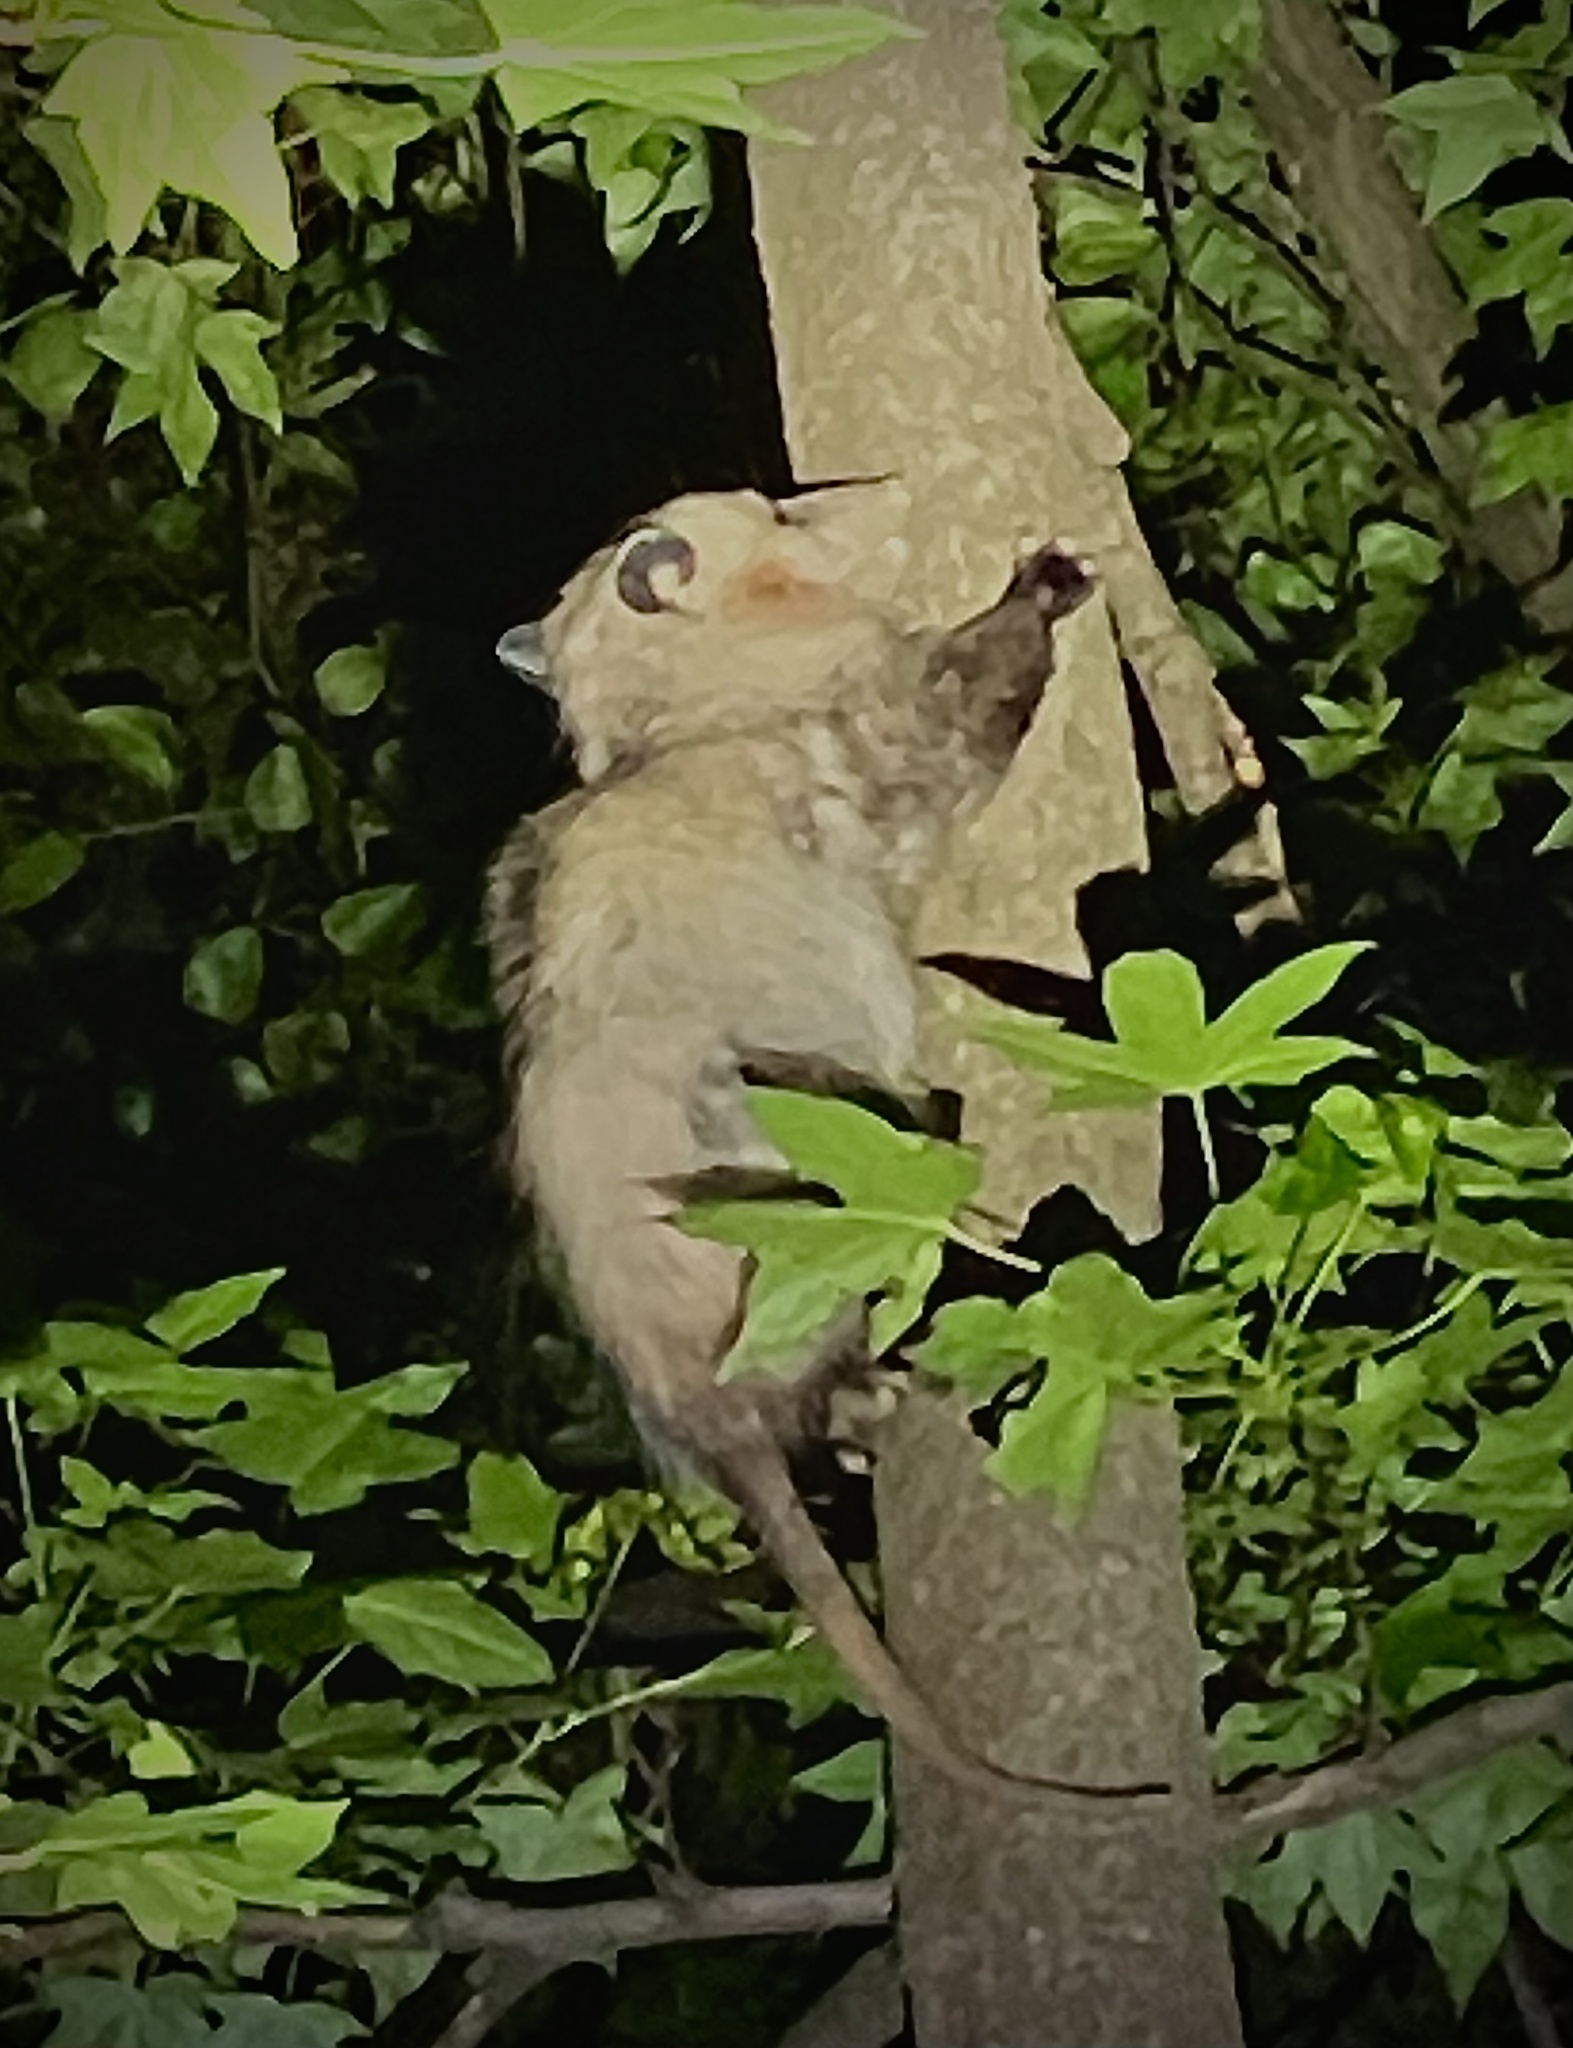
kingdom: Animalia
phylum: Chordata
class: Mammalia
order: Didelphimorphia
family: Didelphidae
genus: Didelphis
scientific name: Didelphis virginiana
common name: Virginia opossum
